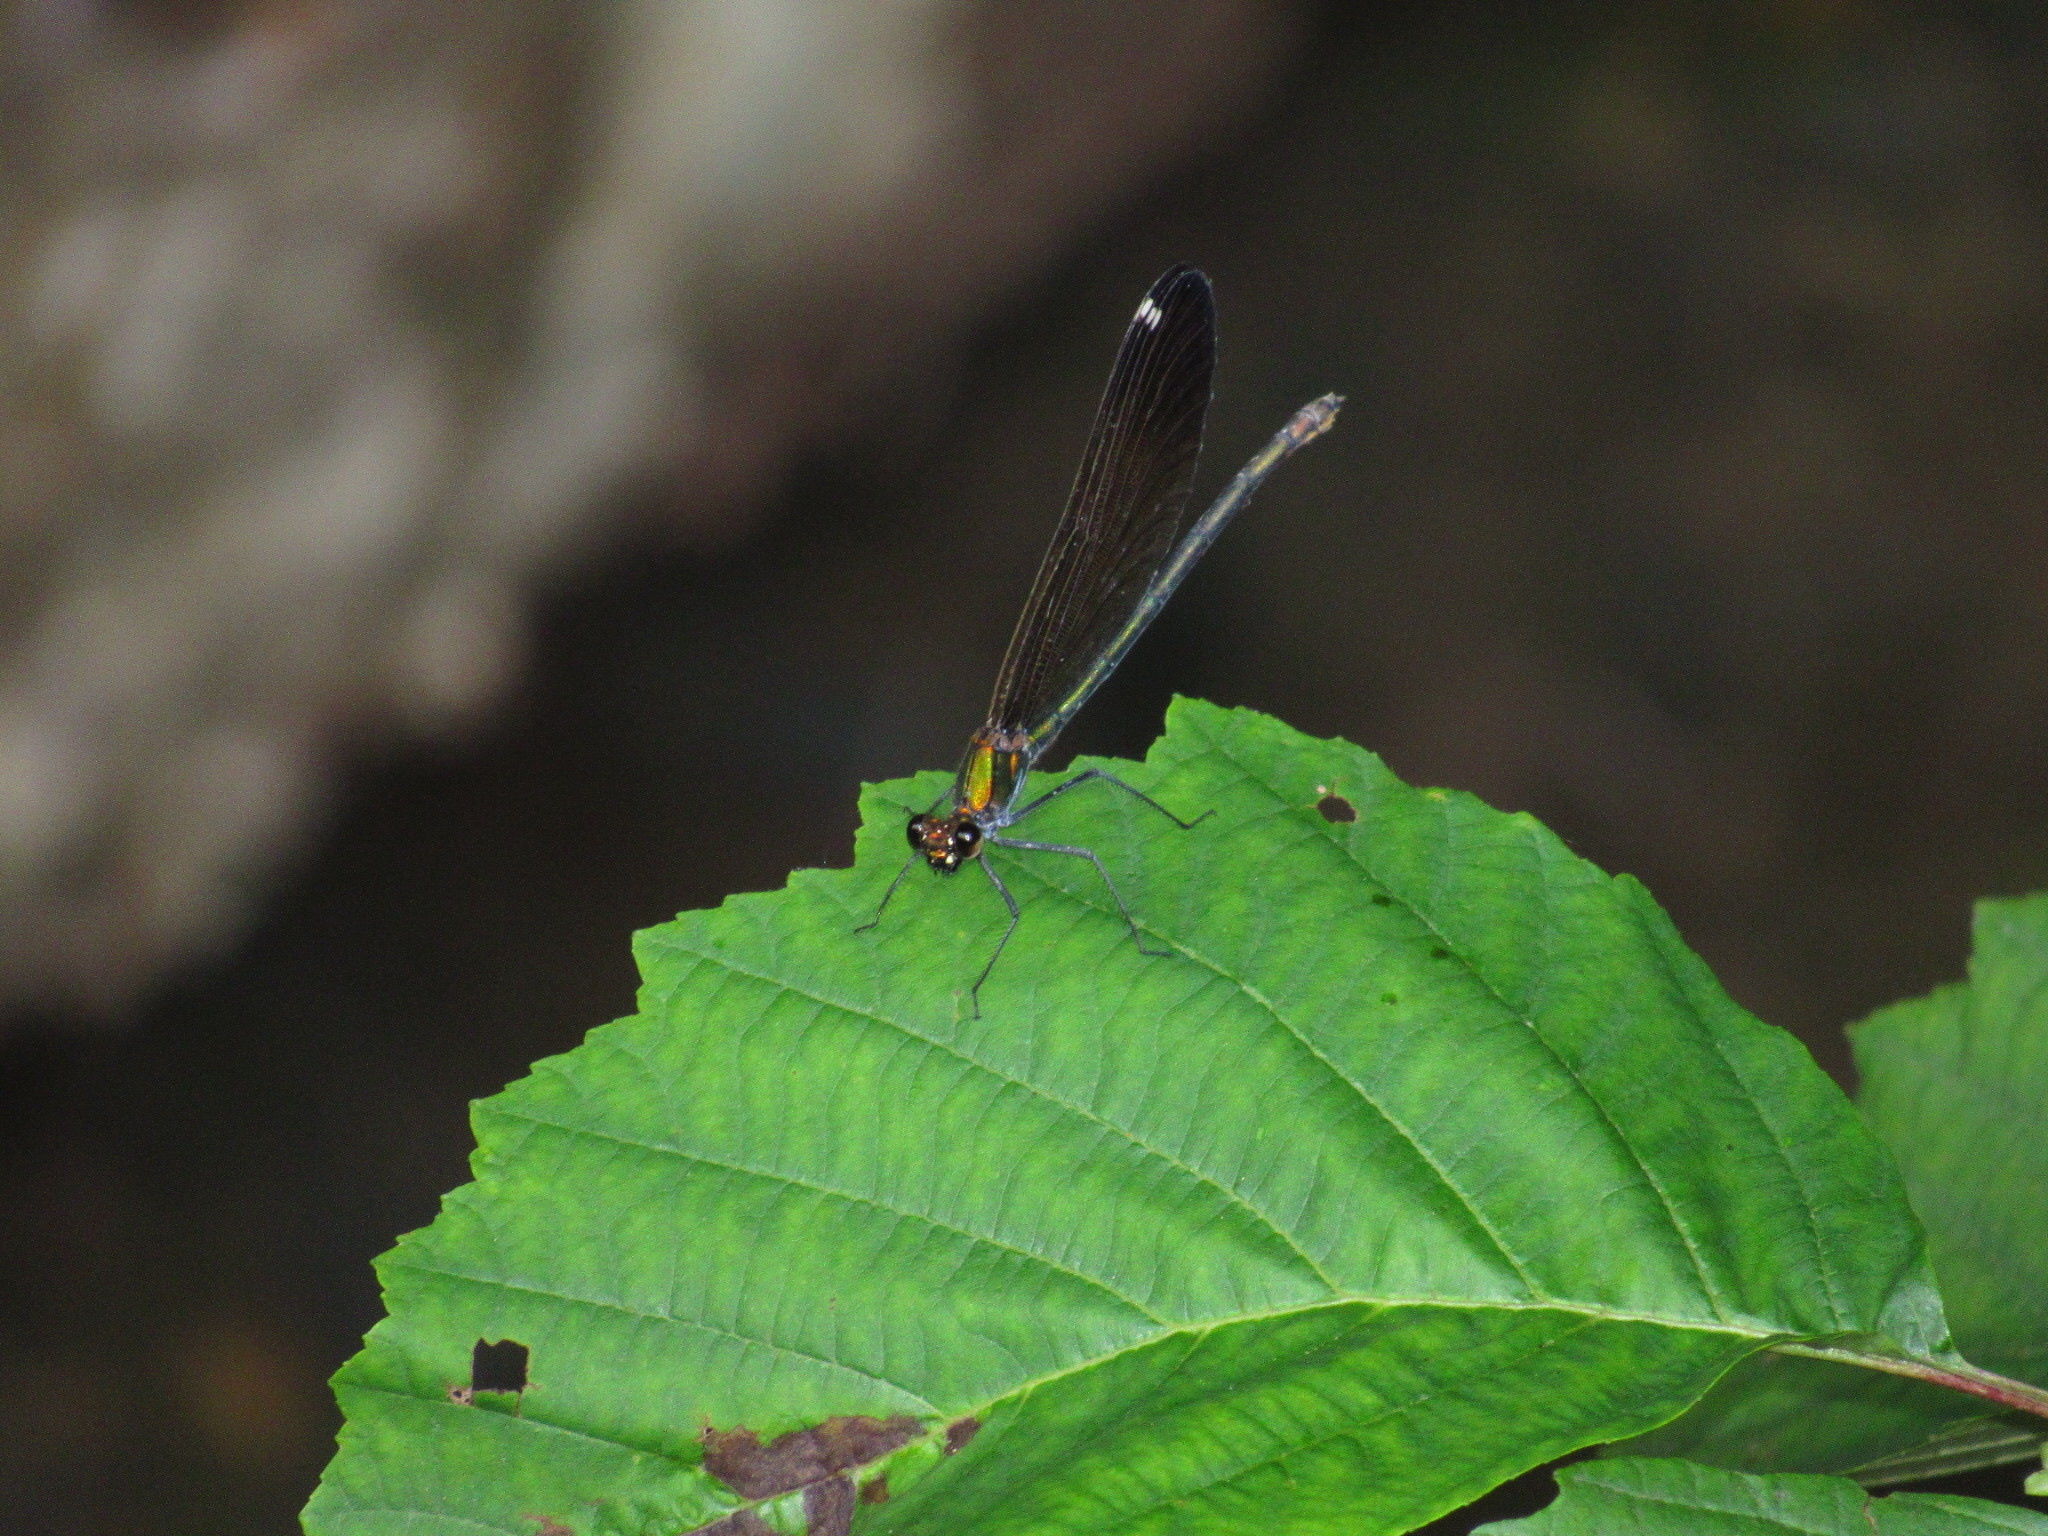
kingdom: Animalia
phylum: Arthropoda
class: Insecta
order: Odonata
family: Calopterygidae
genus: Calopteryx
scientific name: Calopteryx virgo
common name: Beautiful demoiselle
